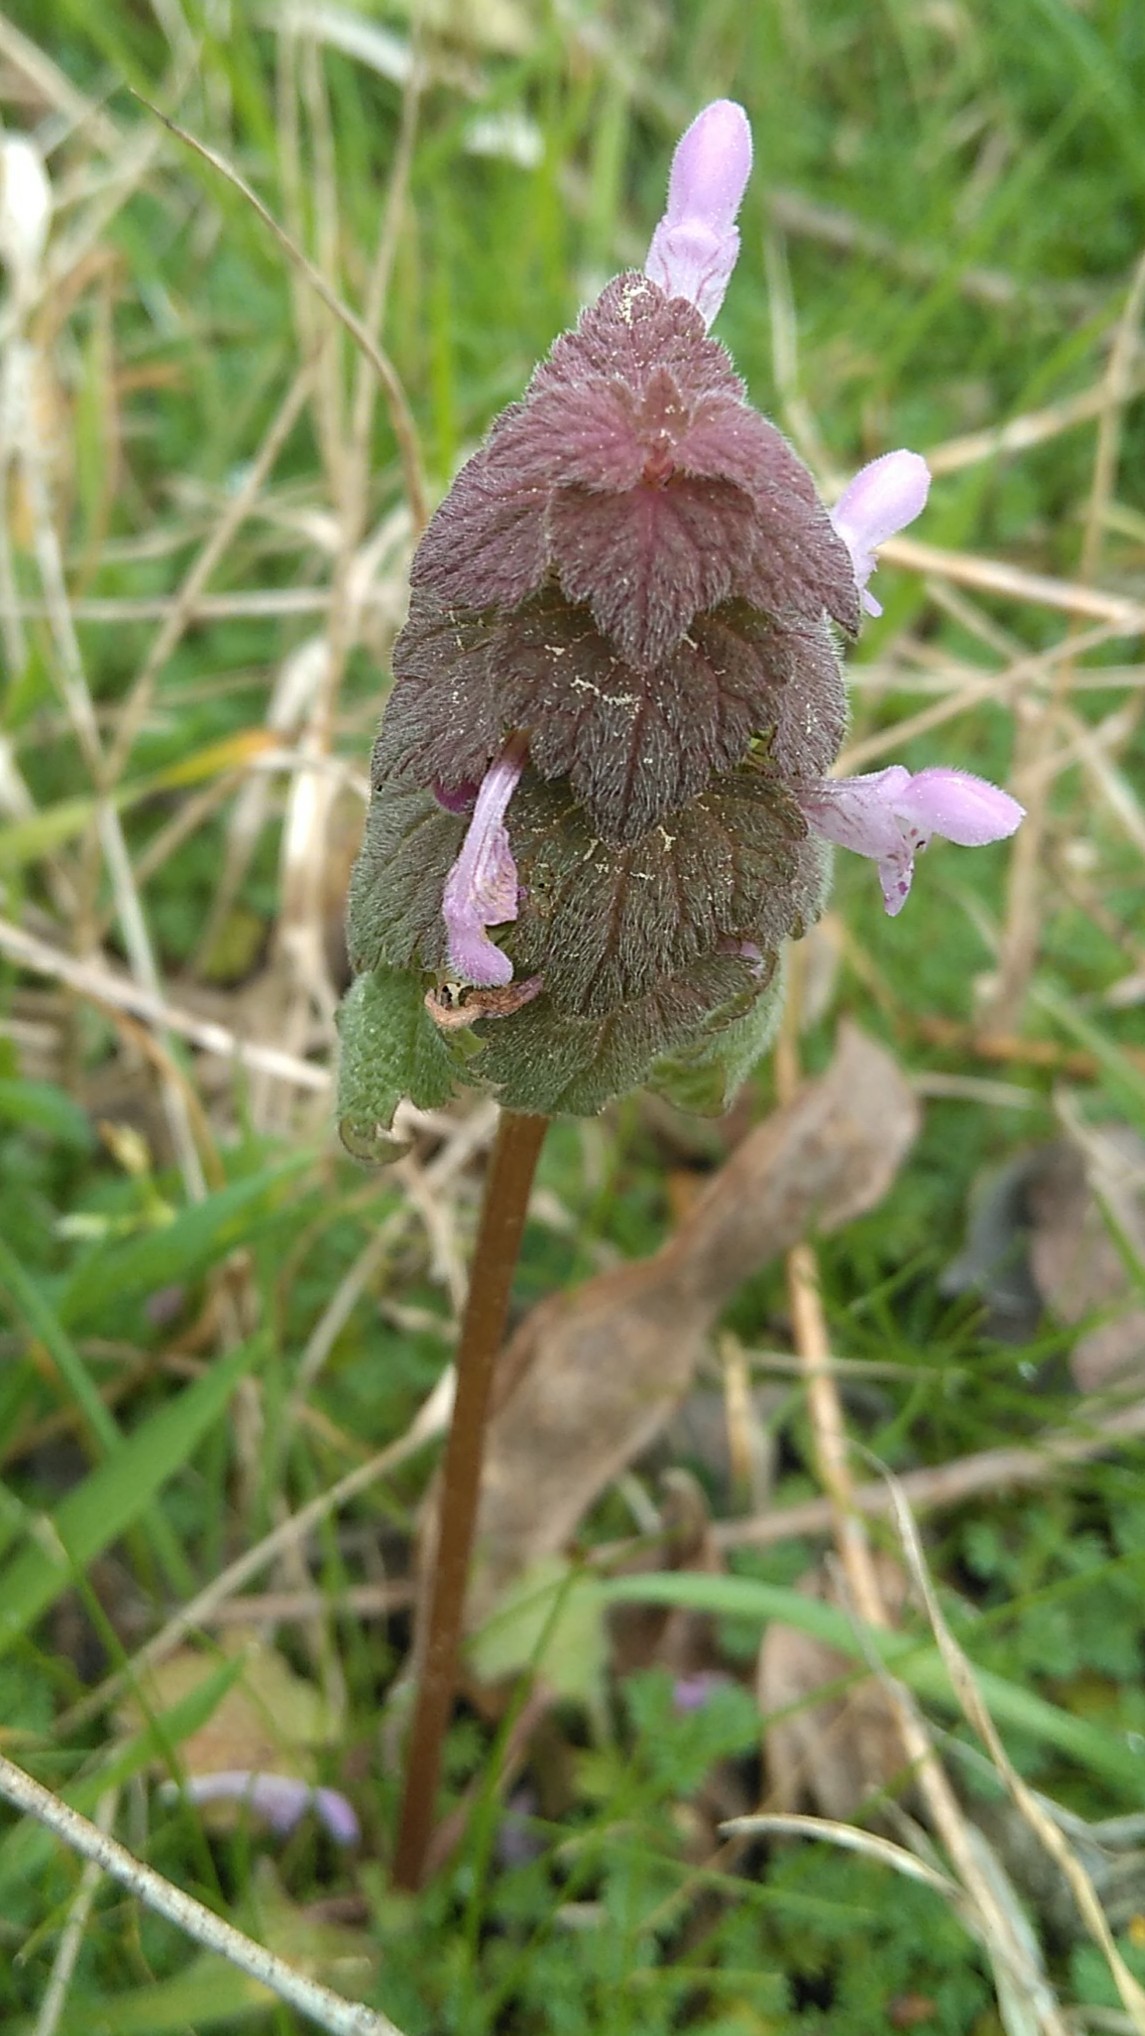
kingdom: Plantae
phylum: Tracheophyta
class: Magnoliopsida
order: Lamiales
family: Lamiaceae
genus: Lamium
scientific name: Lamium purpureum
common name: Red dead-nettle
